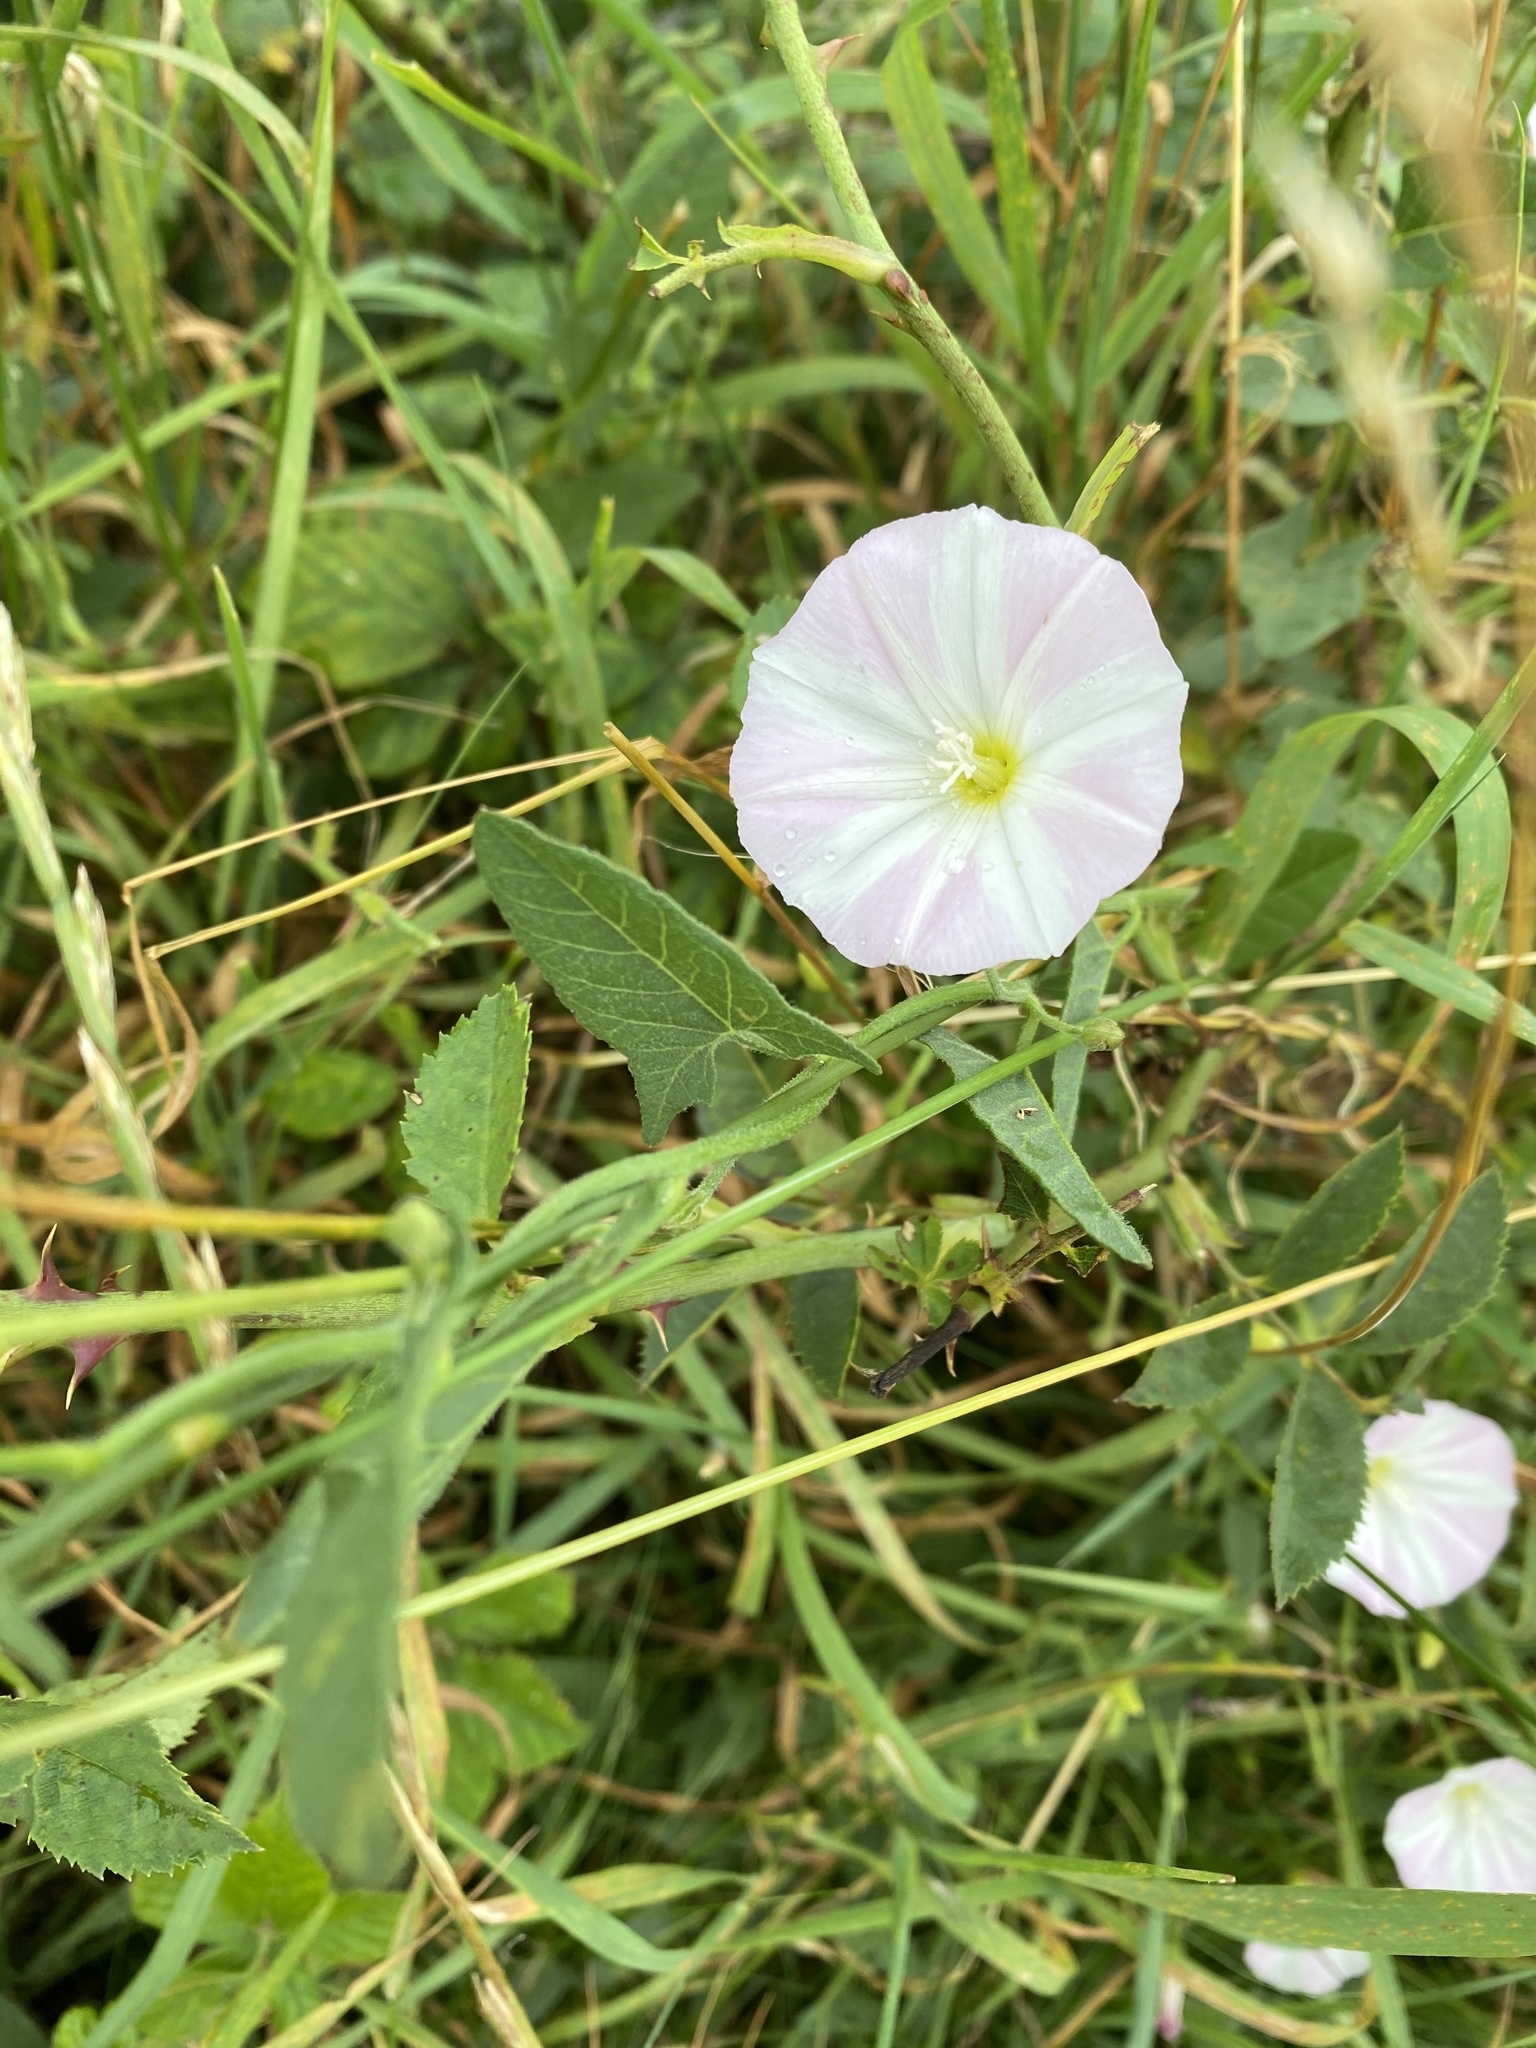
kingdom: Plantae
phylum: Tracheophyta
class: Magnoliopsida
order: Solanales
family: Convolvulaceae
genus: Convolvulus
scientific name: Convolvulus arvensis
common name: Field bindweed
